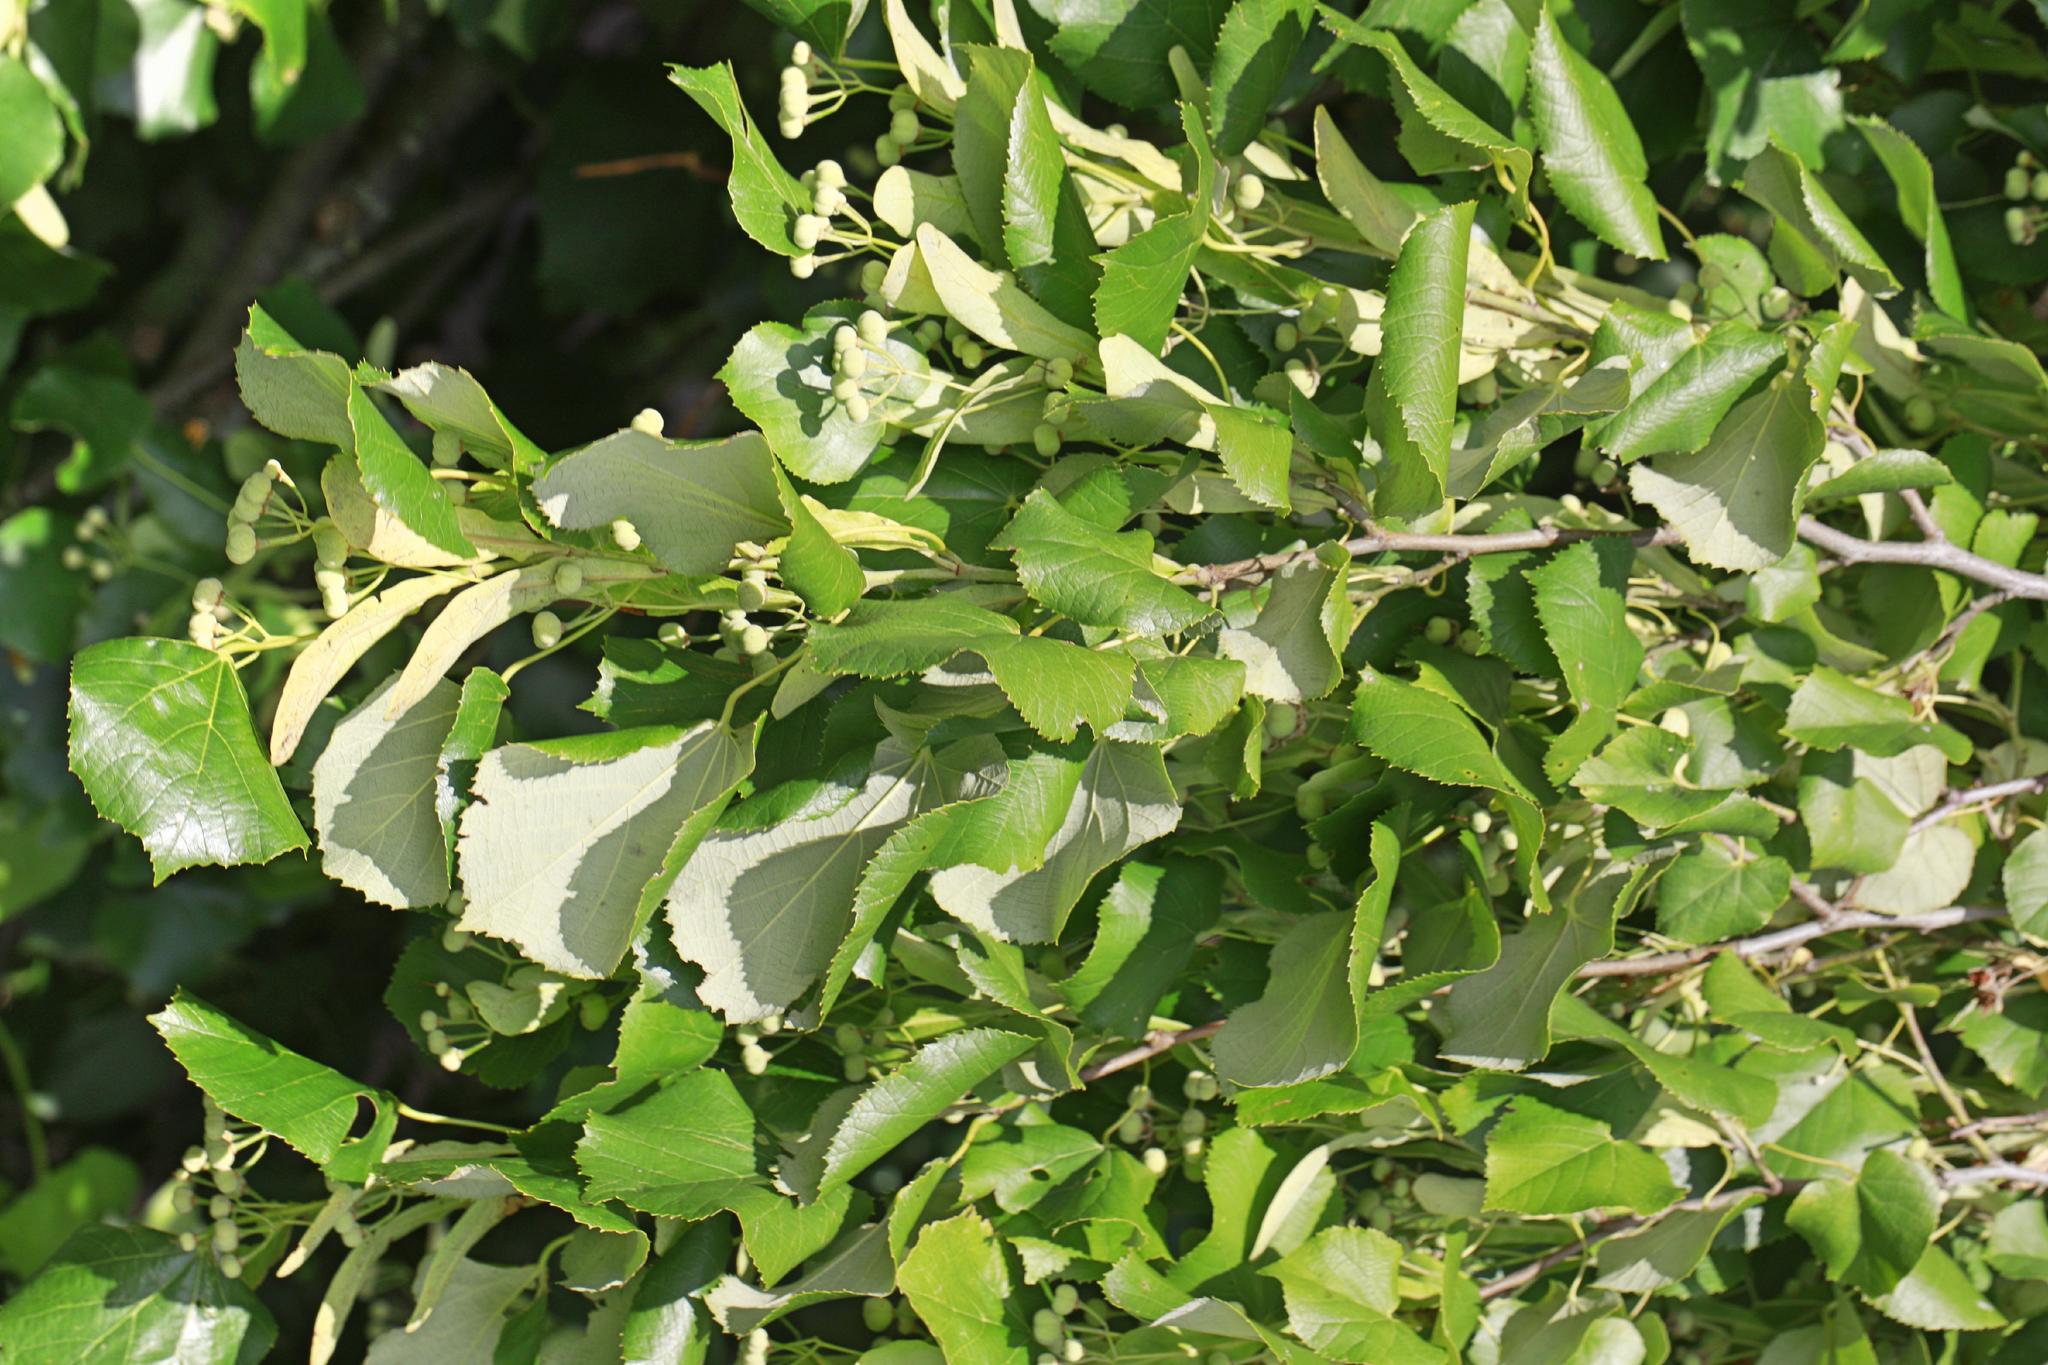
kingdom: Plantae
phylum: Tracheophyta
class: Magnoliopsida
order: Malvales
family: Malvaceae
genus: Tilia
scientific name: Tilia tomentosa
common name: Silver lime
